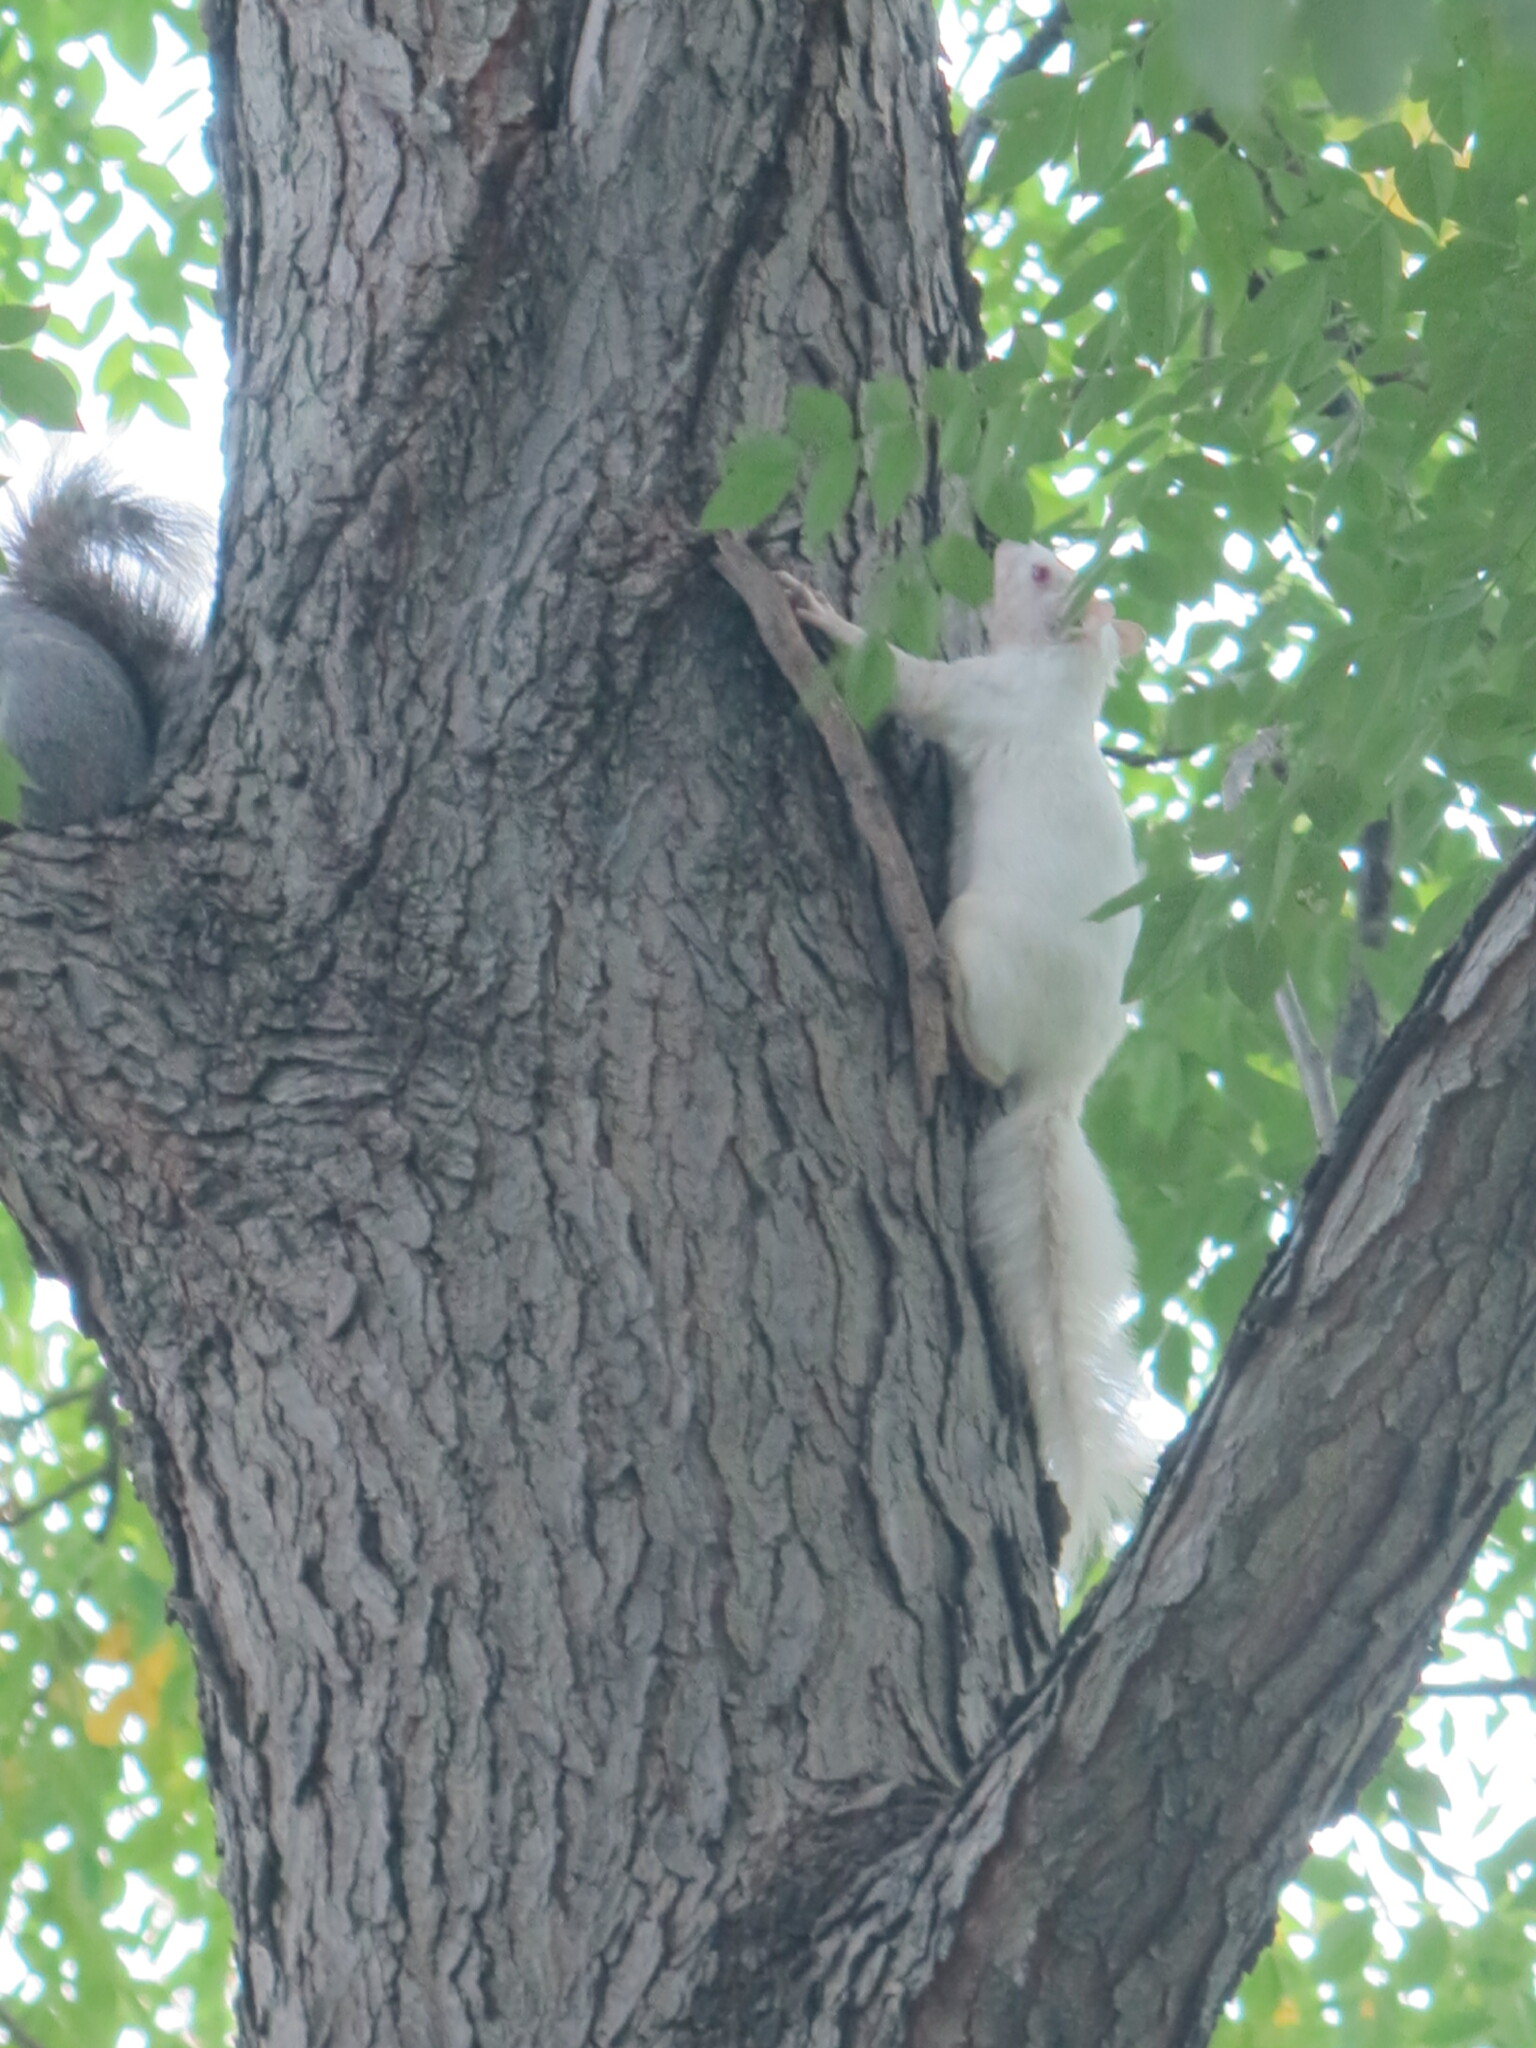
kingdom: Animalia
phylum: Chordata
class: Mammalia
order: Rodentia
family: Sciuridae
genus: Sciurus
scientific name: Sciurus carolinensis
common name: Eastern gray squirrel
